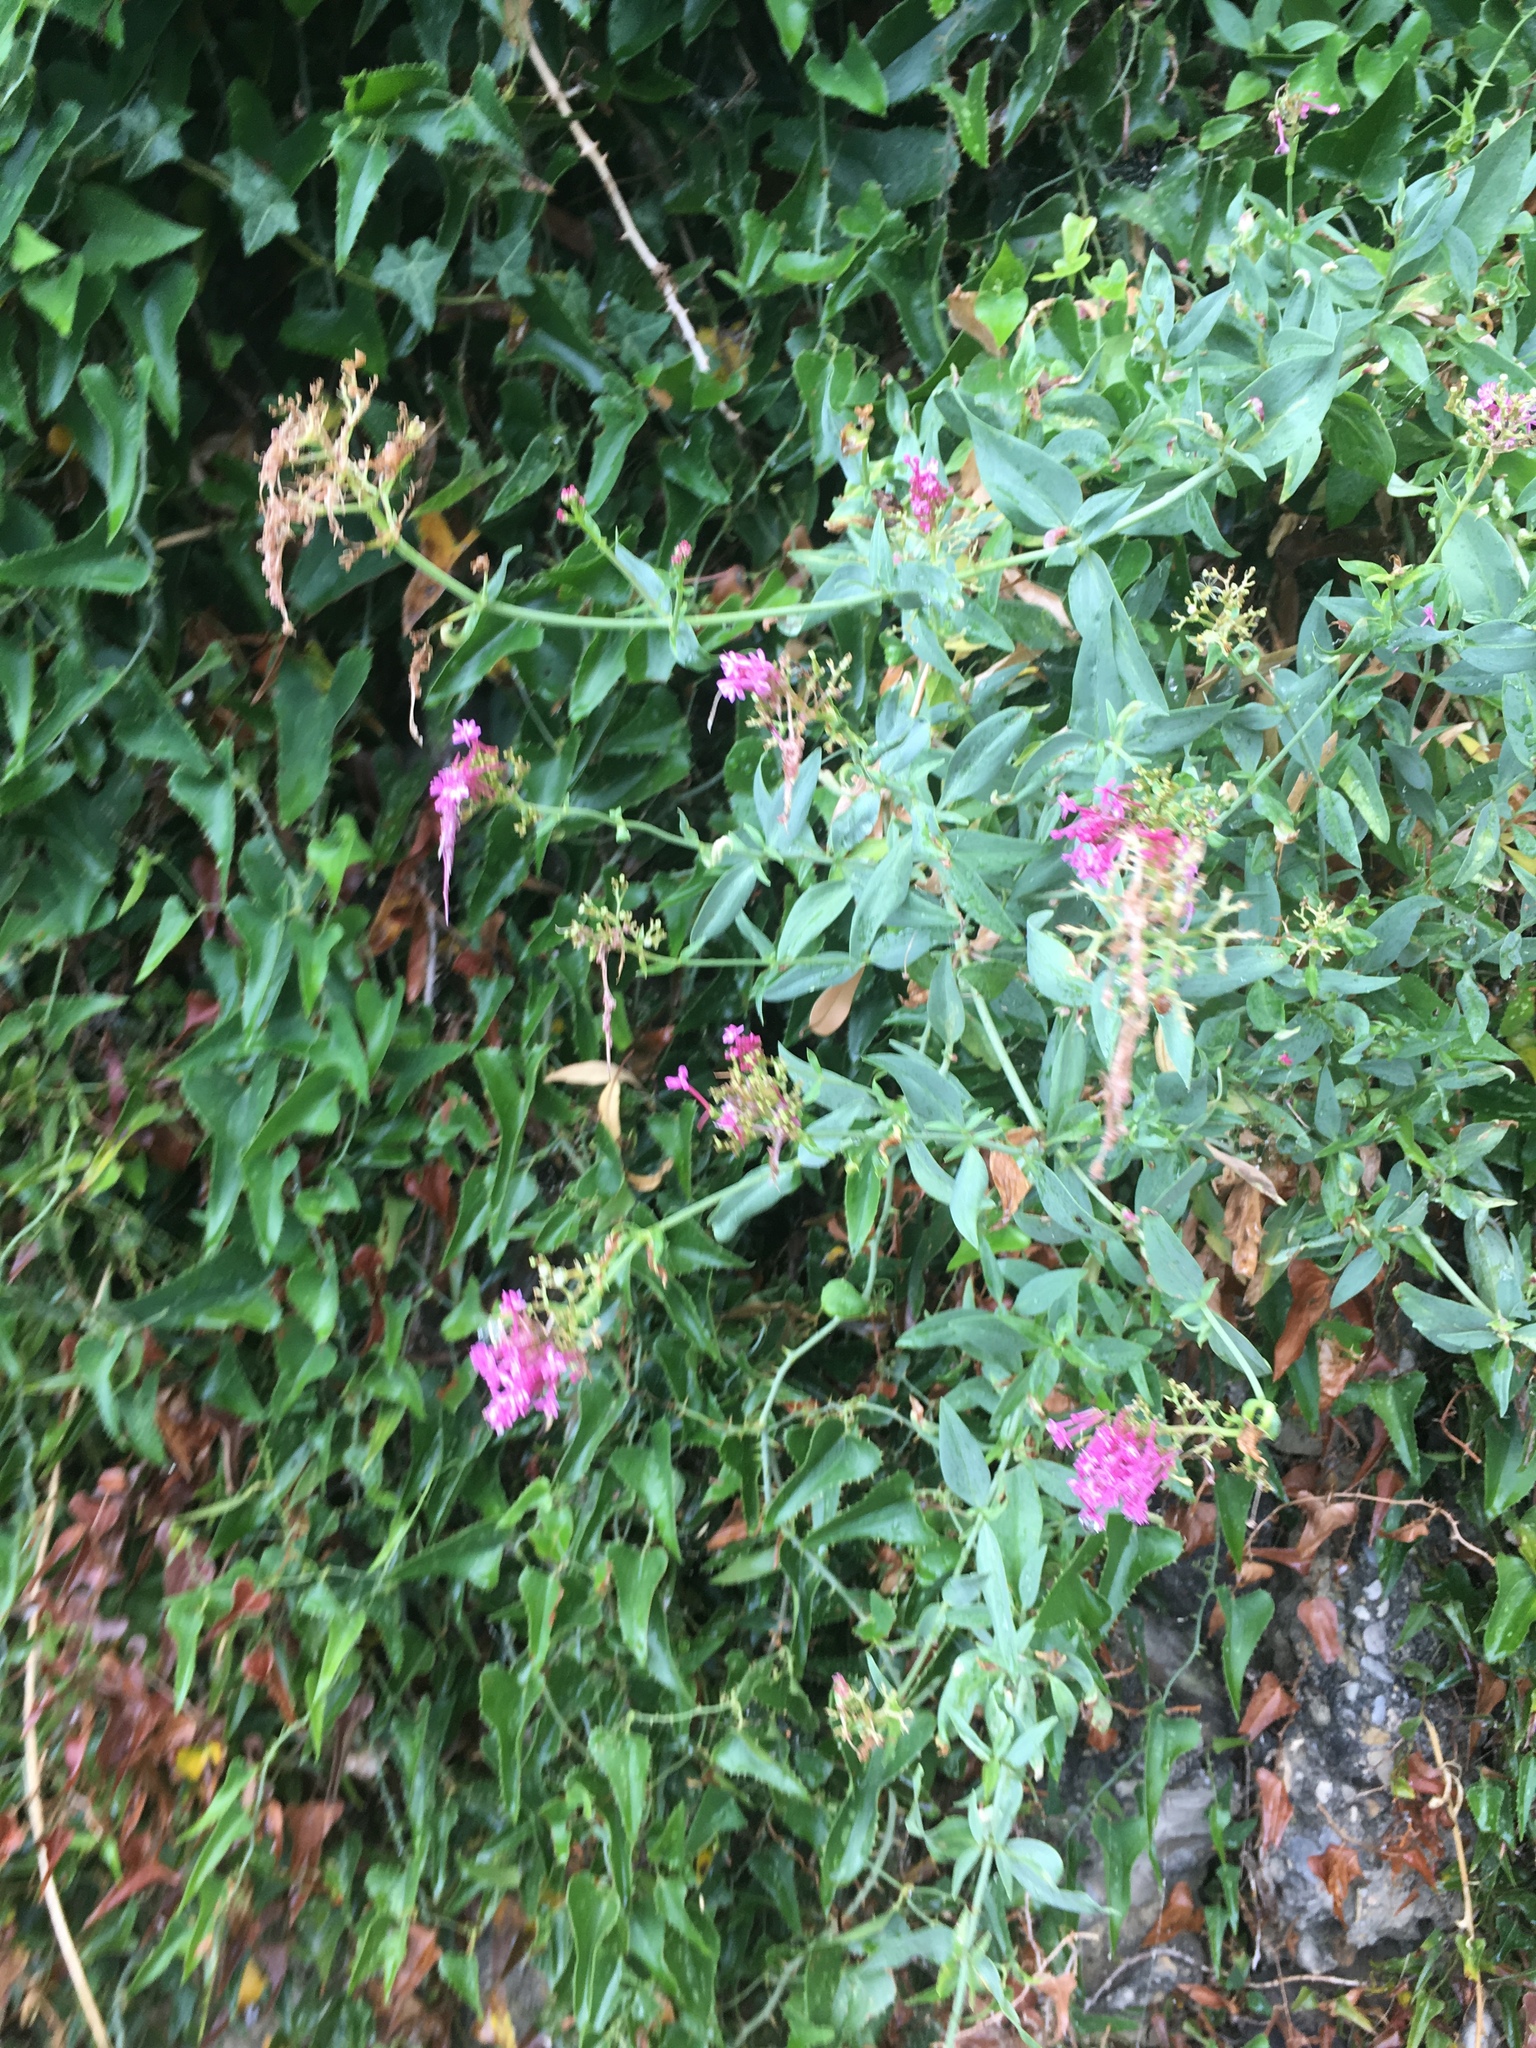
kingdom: Plantae
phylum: Tracheophyta
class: Magnoliopsida
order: Dipsacales
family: Caprifoliaceae
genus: Centranthus
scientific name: Centranthus ruber
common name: Red valerian
